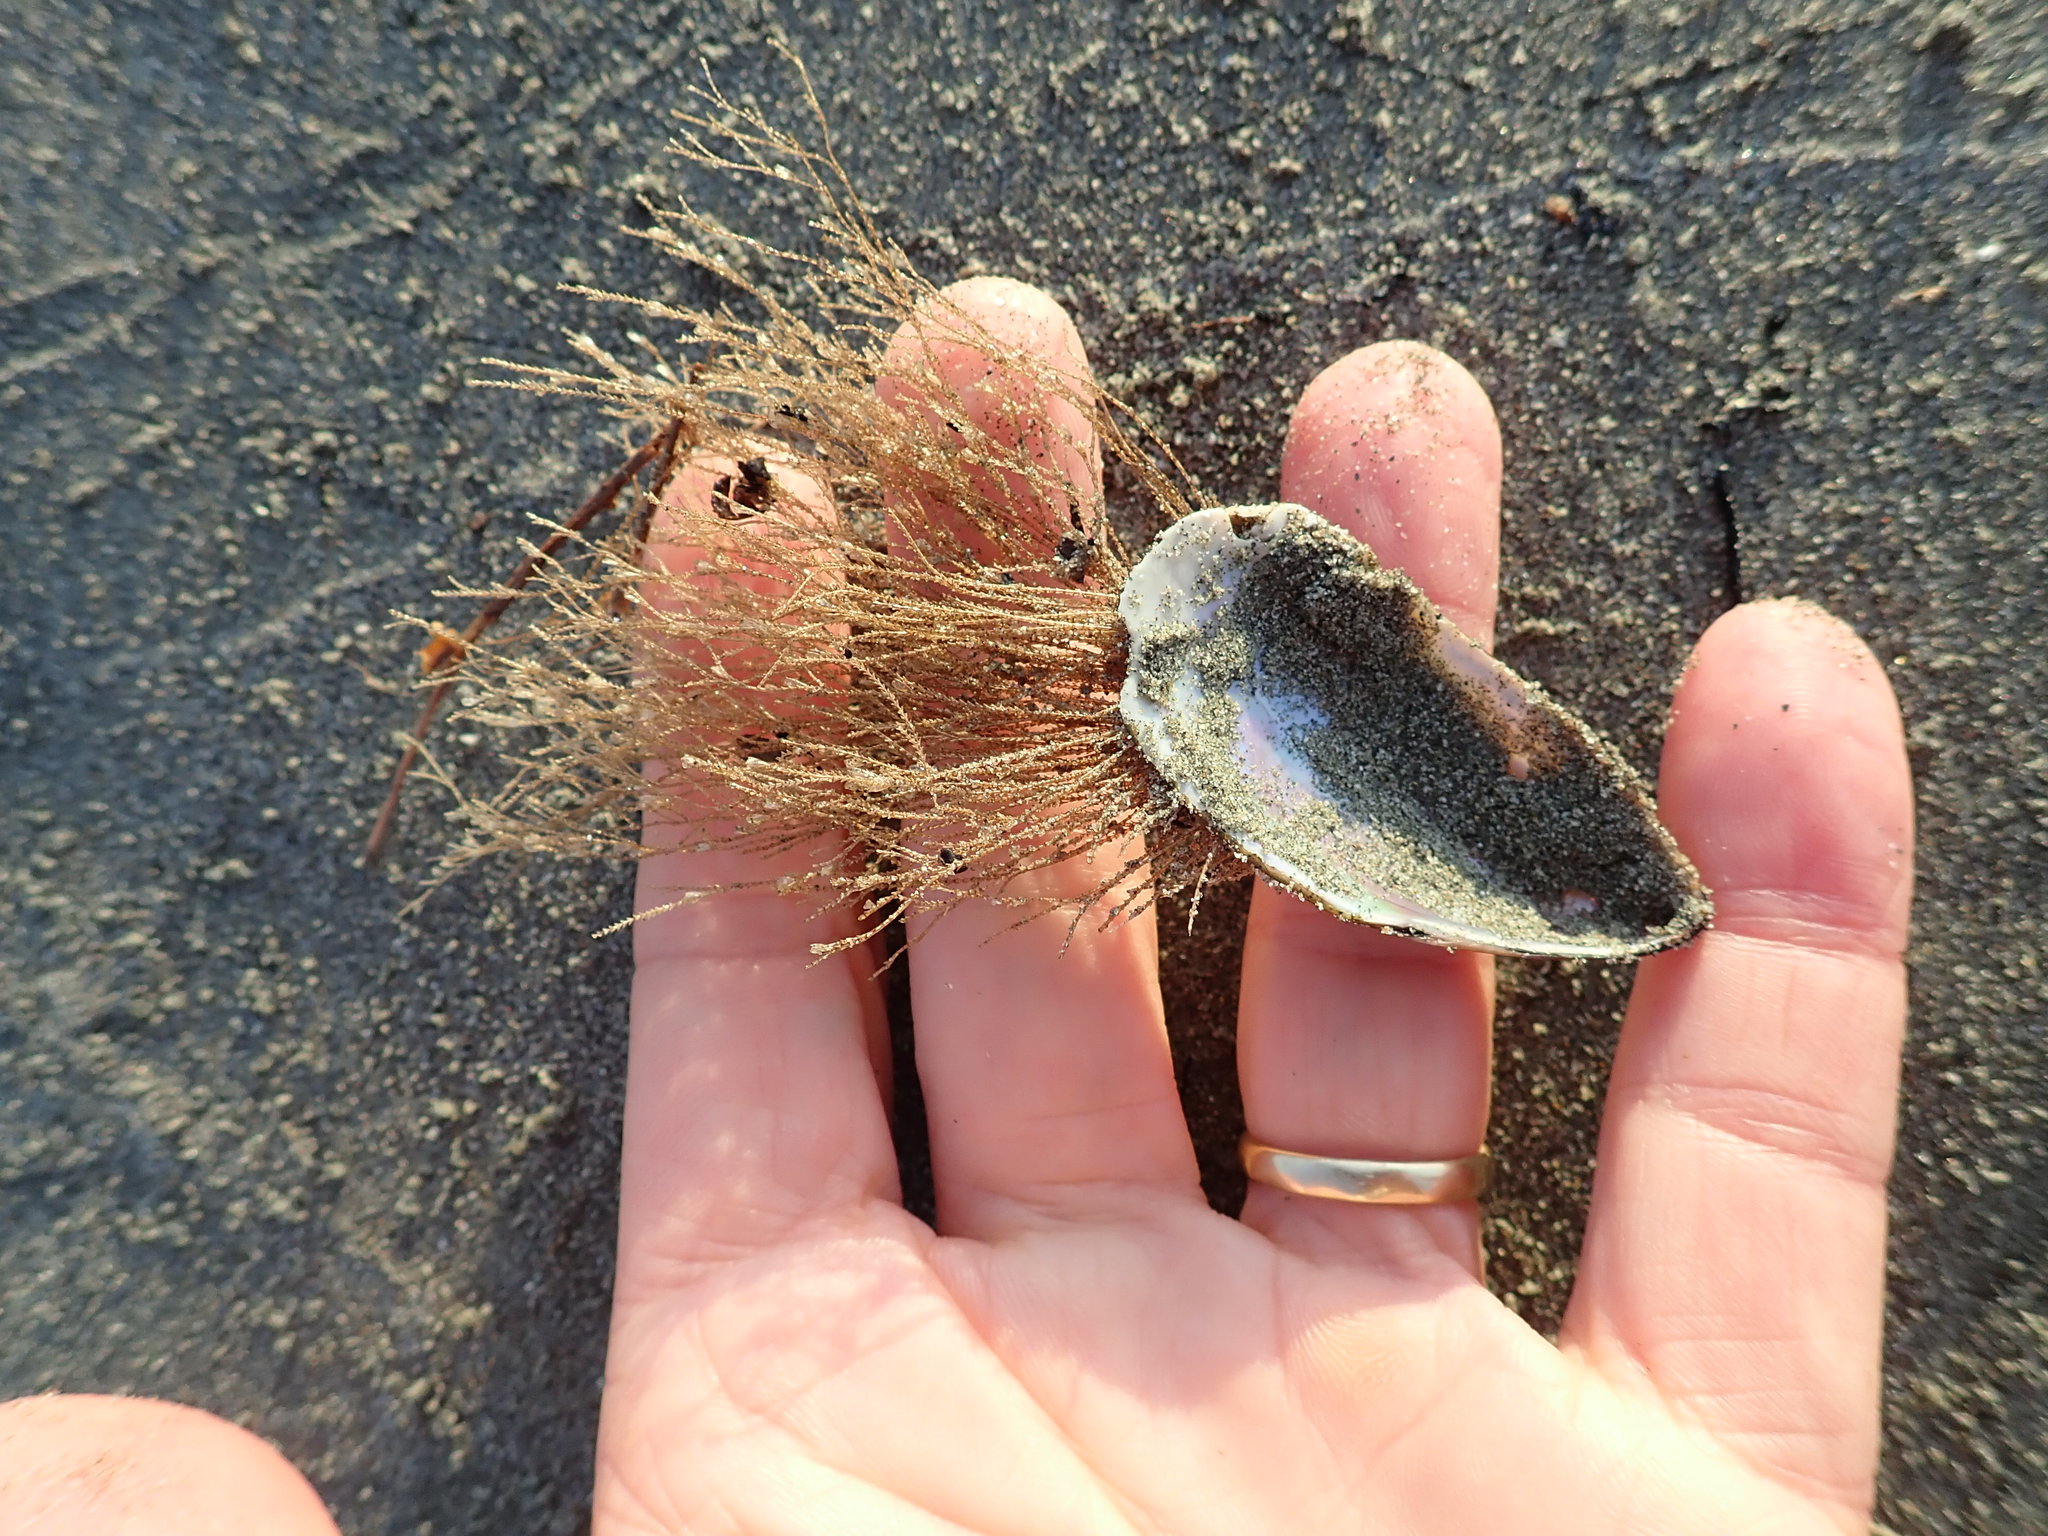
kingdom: Animalia
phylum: Cnidaria
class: Hydrozoa
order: Leptothecata
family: Sertulariidae
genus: Amphisbetia
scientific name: Amphisbetia bispinosa
